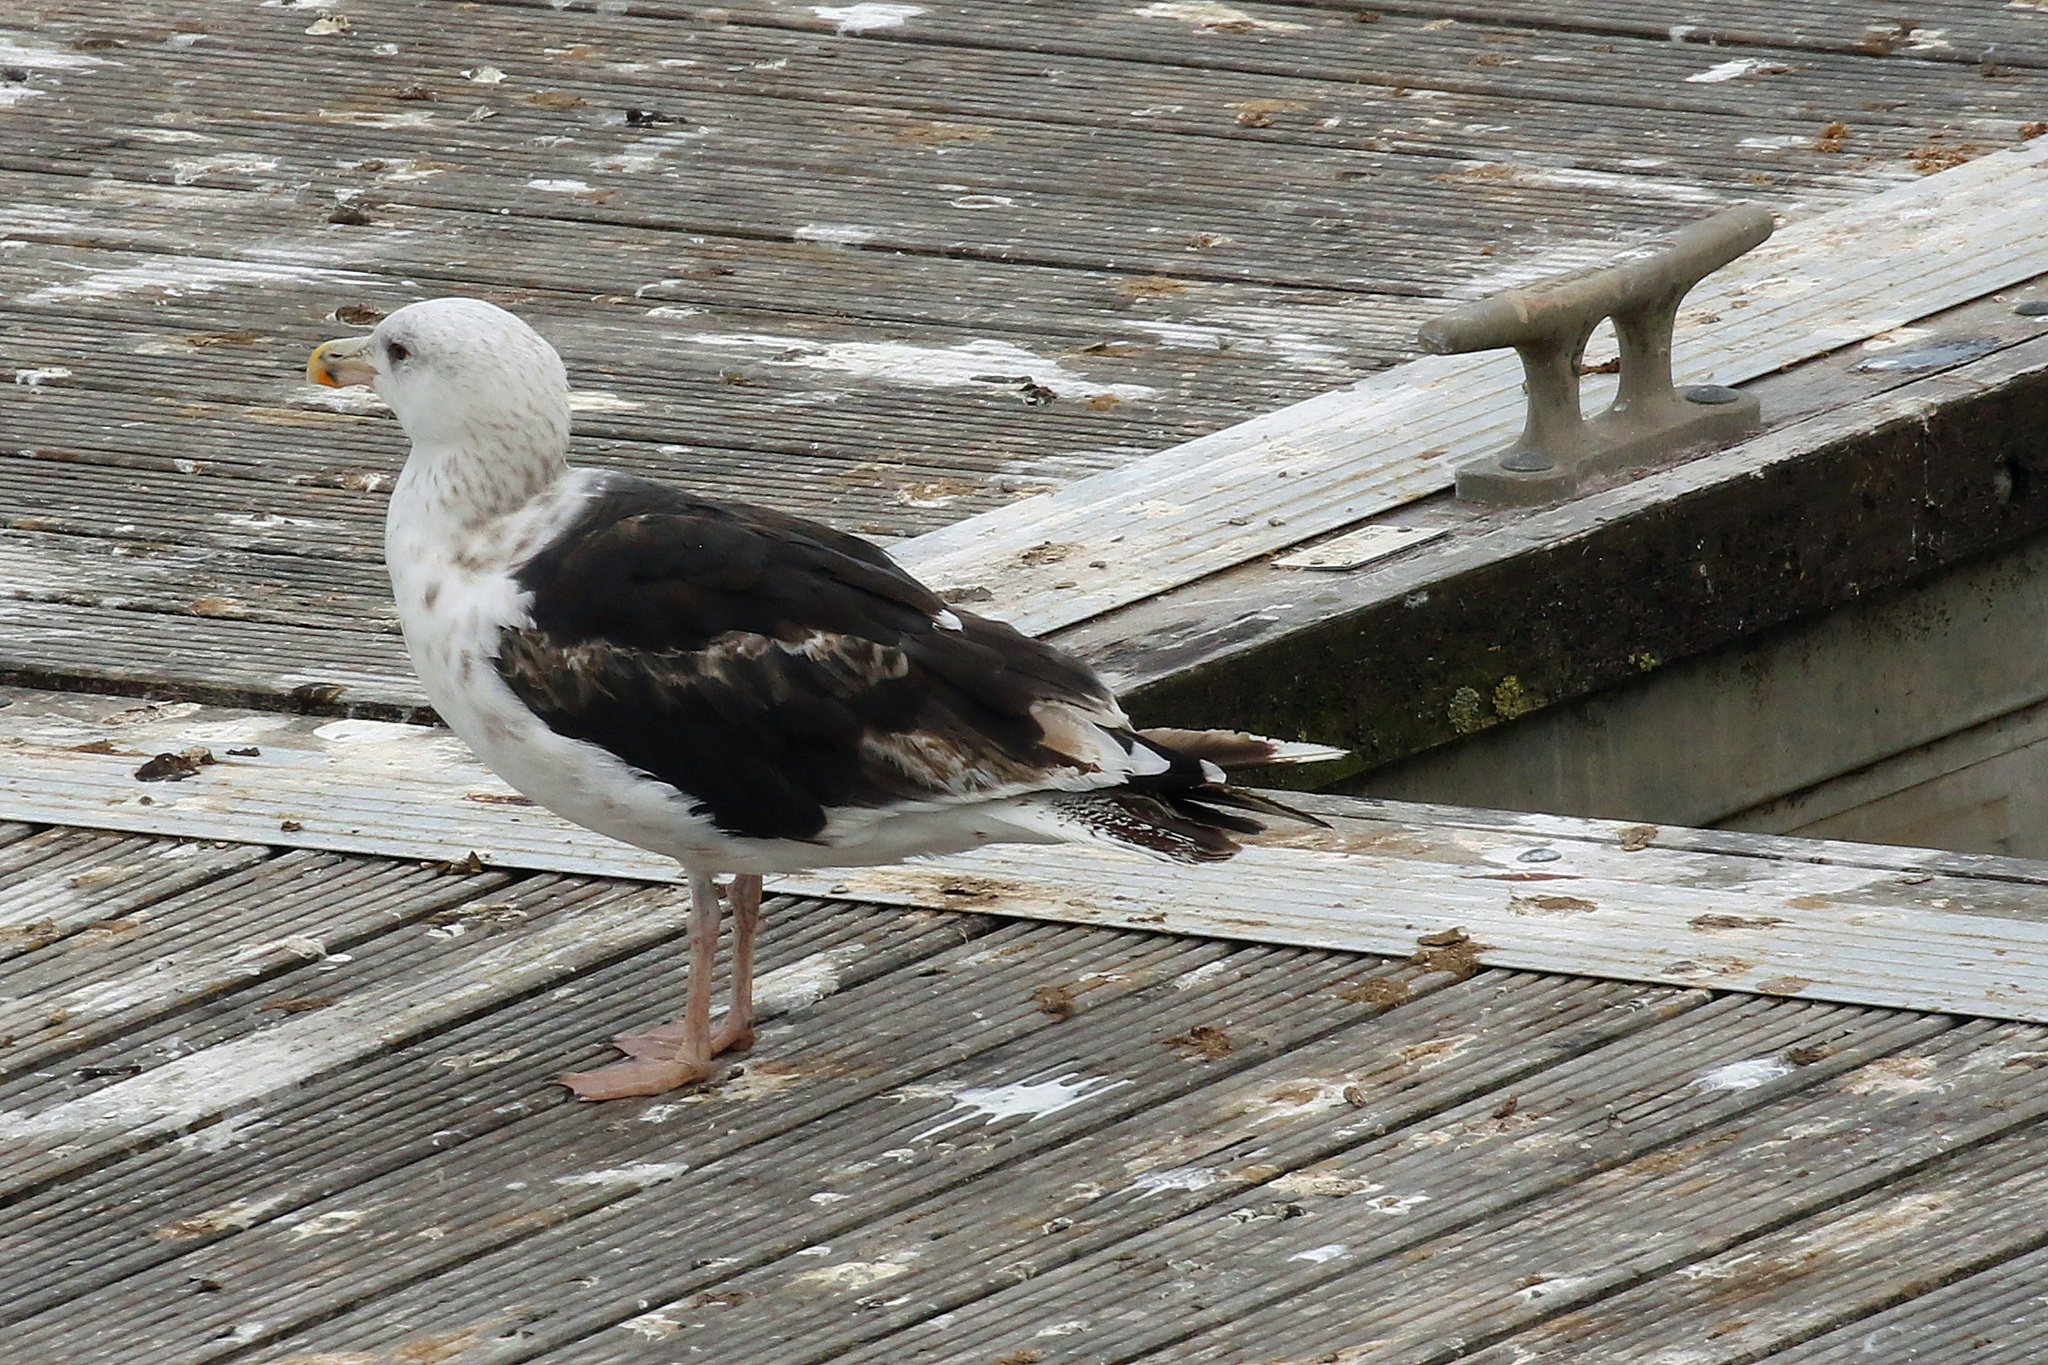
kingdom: Animalia
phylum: Chordata
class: Aves
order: Charadriiformes
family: Laridae
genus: Larus
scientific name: Larus marinus
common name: Great black-backed gull
